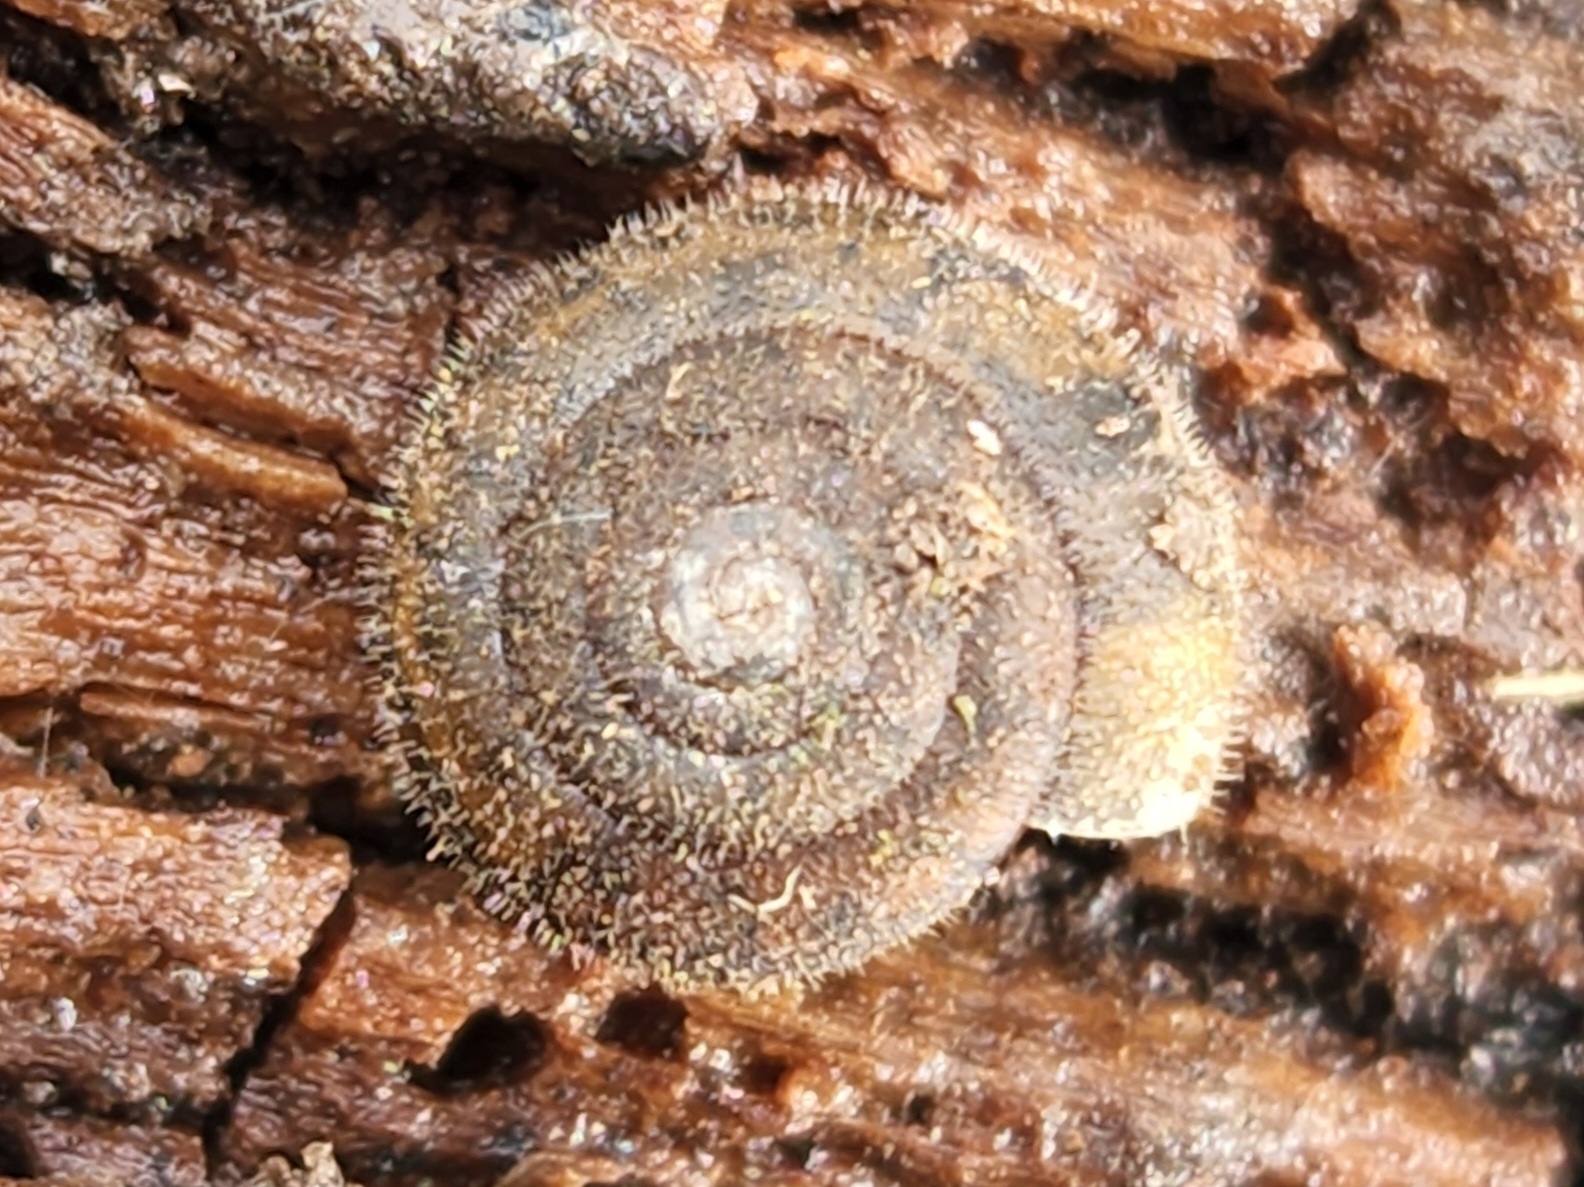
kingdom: Animalia
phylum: Mollusca
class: Gastropoda
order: Stylommatophora
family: Polygyridae
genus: Vespericola
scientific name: Vespericola columbianus
